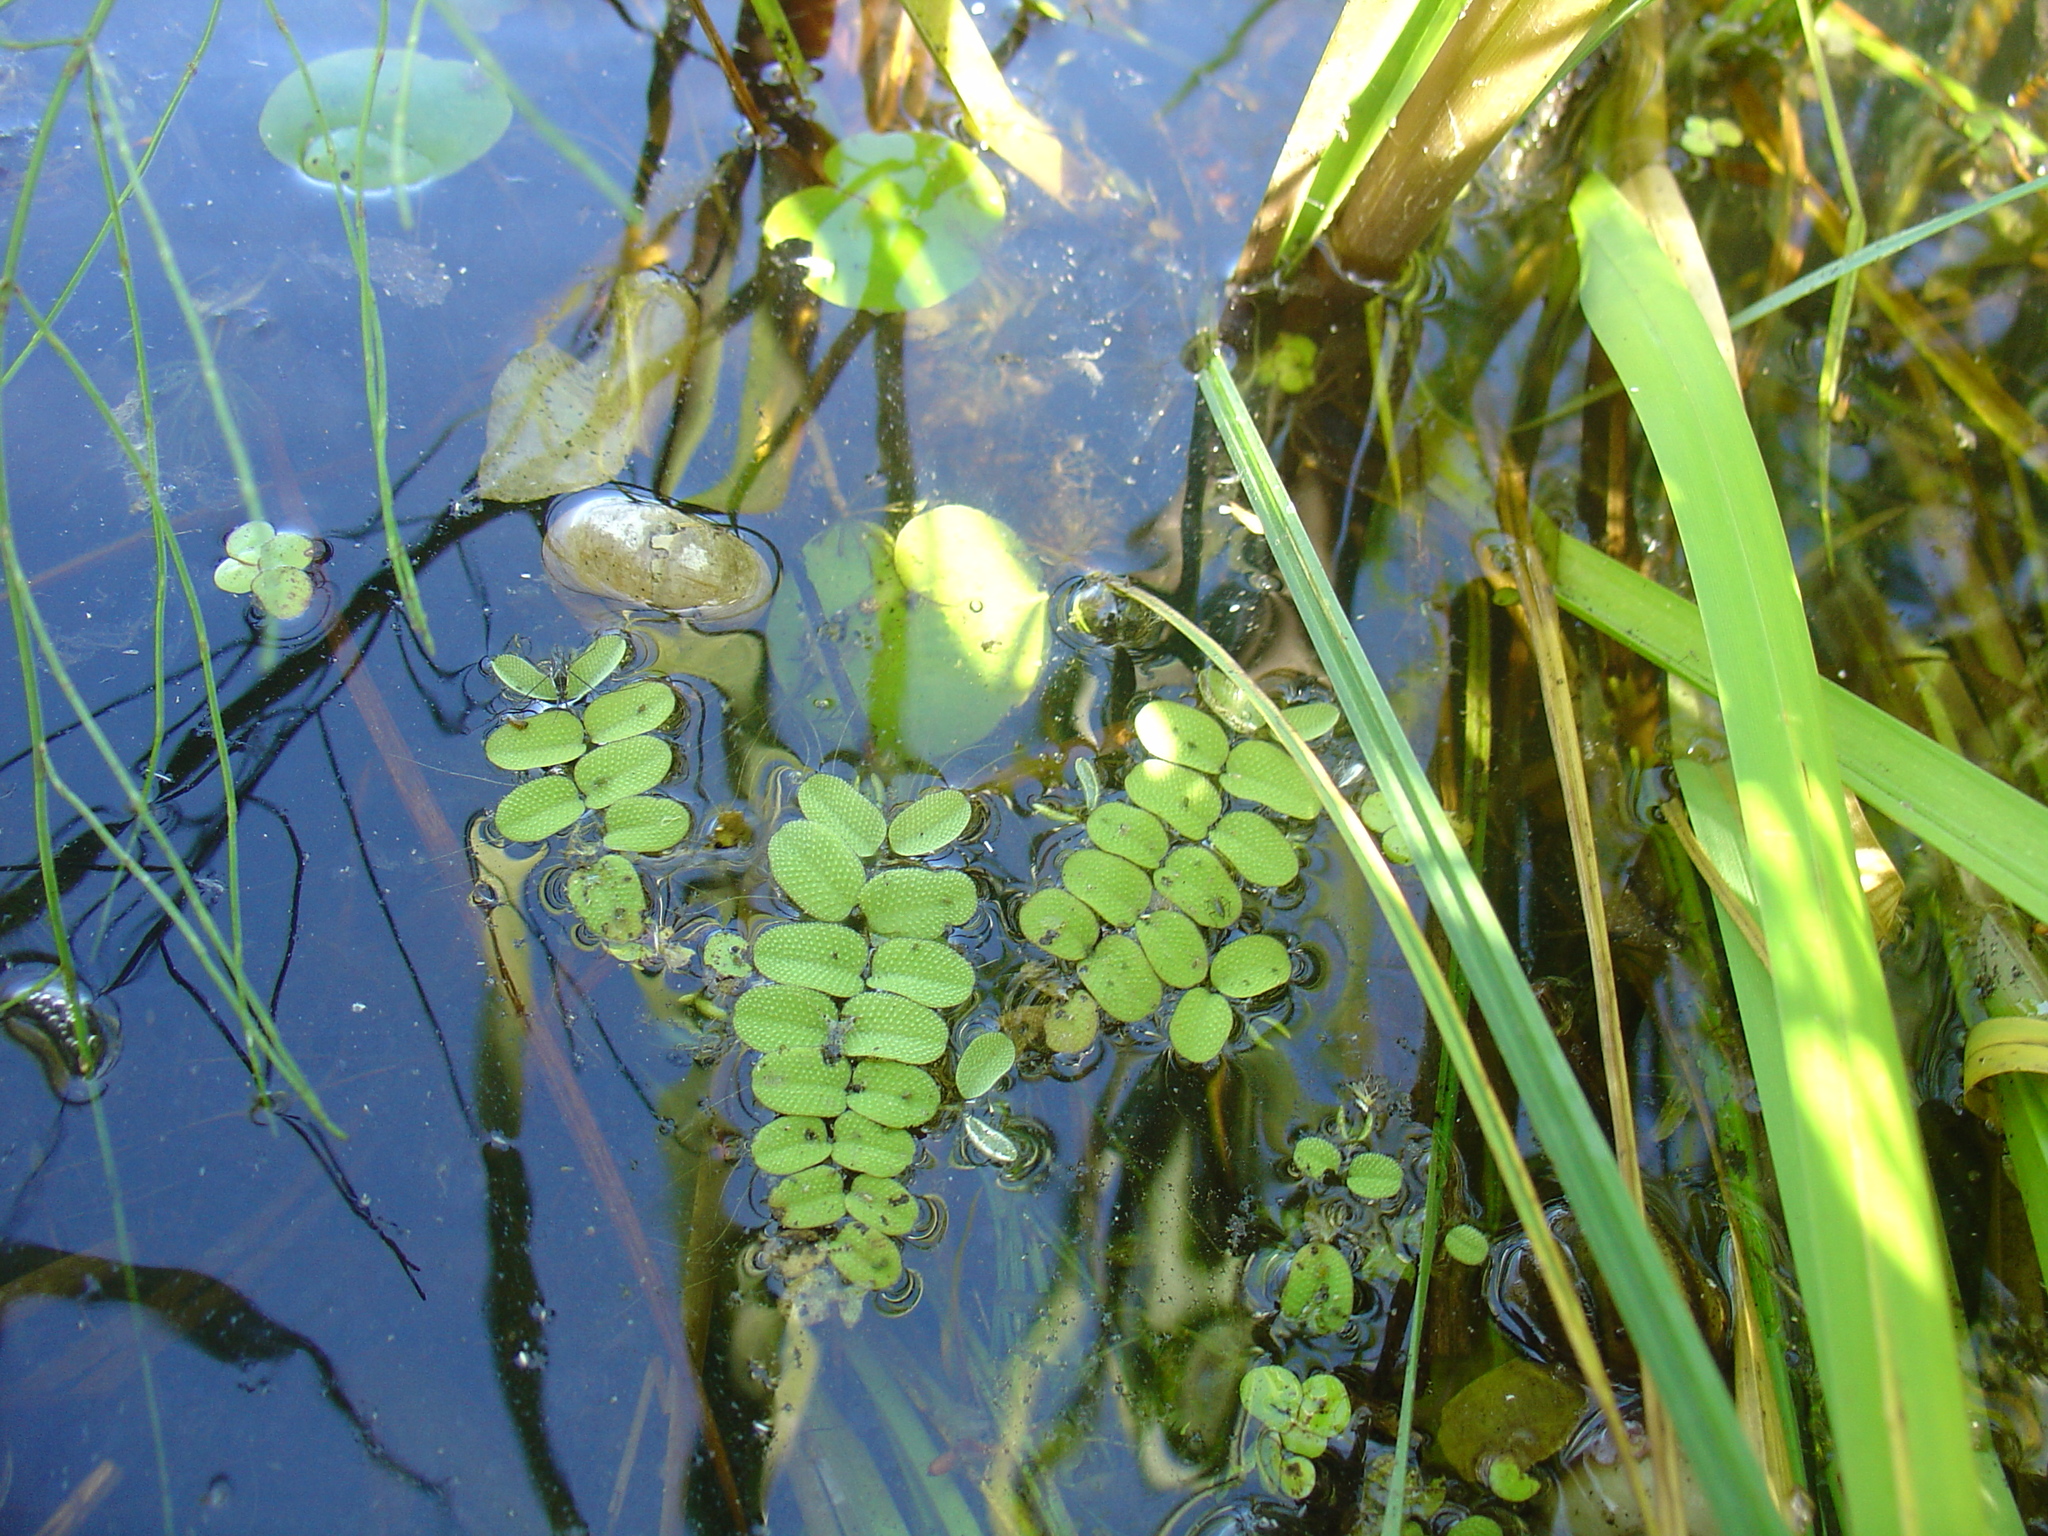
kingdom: Plantae
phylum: Tracheophyta
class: Polypodiopsida
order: Salviniales
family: Salviniaceae
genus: Salvinia
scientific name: Salvinia natans
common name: Floating fern
